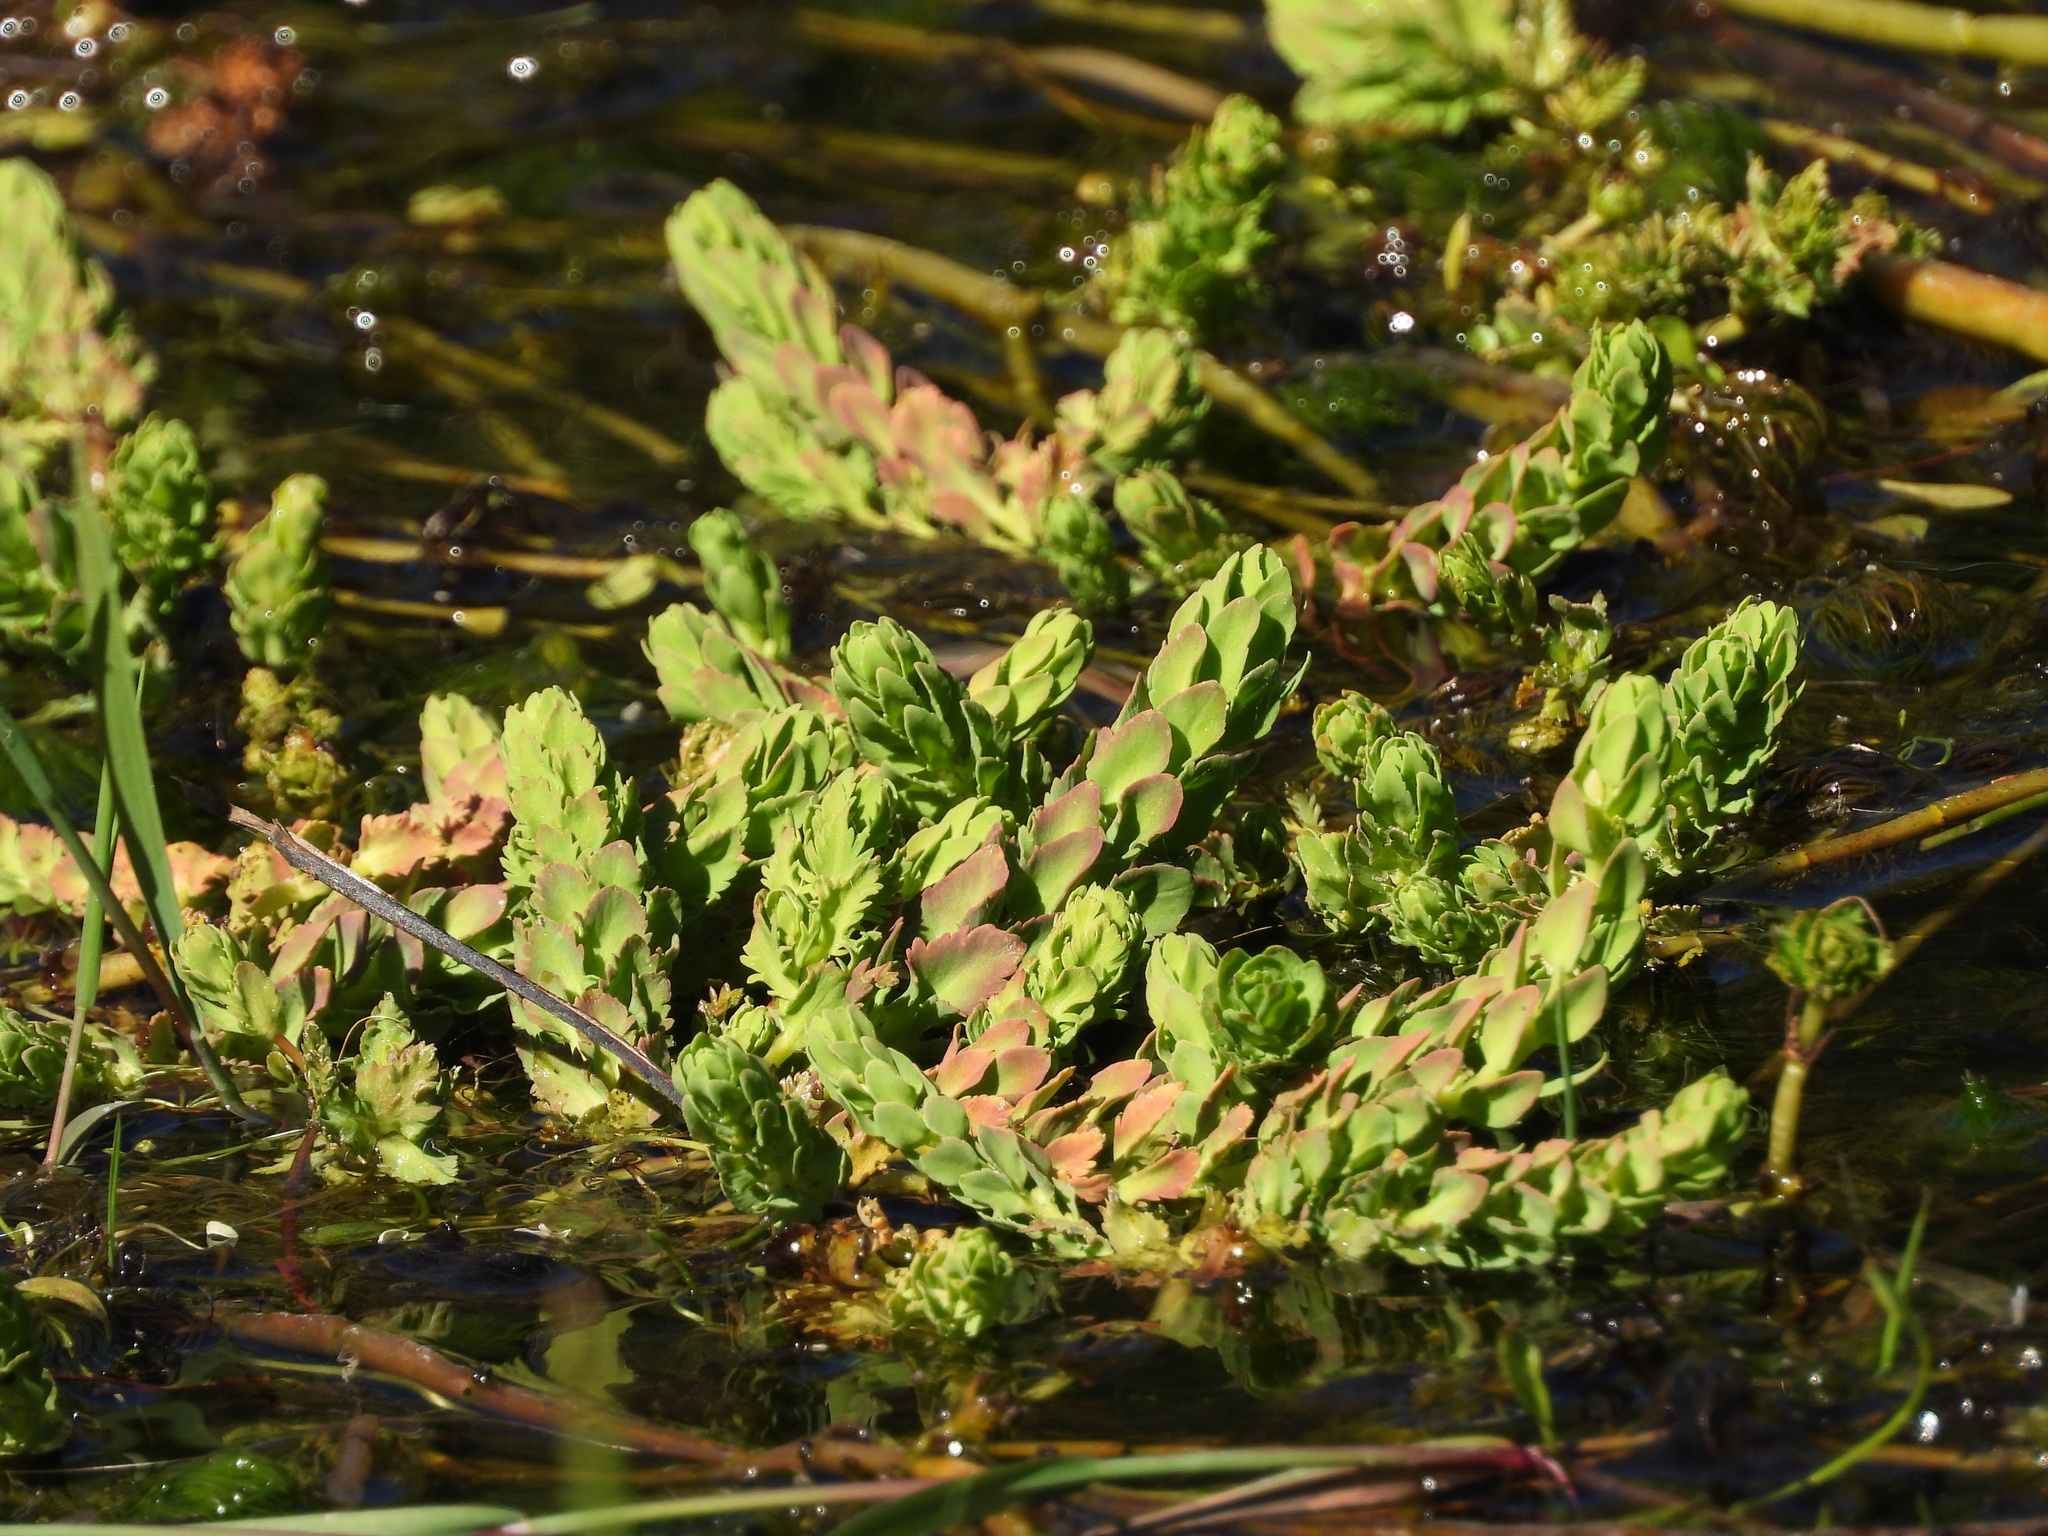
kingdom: Plantae
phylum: Tracheophyta
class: Magnoliopsida
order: Saxifragales
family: Haloragaceae
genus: Myriophyllum
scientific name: Myriophyllum quitense
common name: Andean water milfoil
